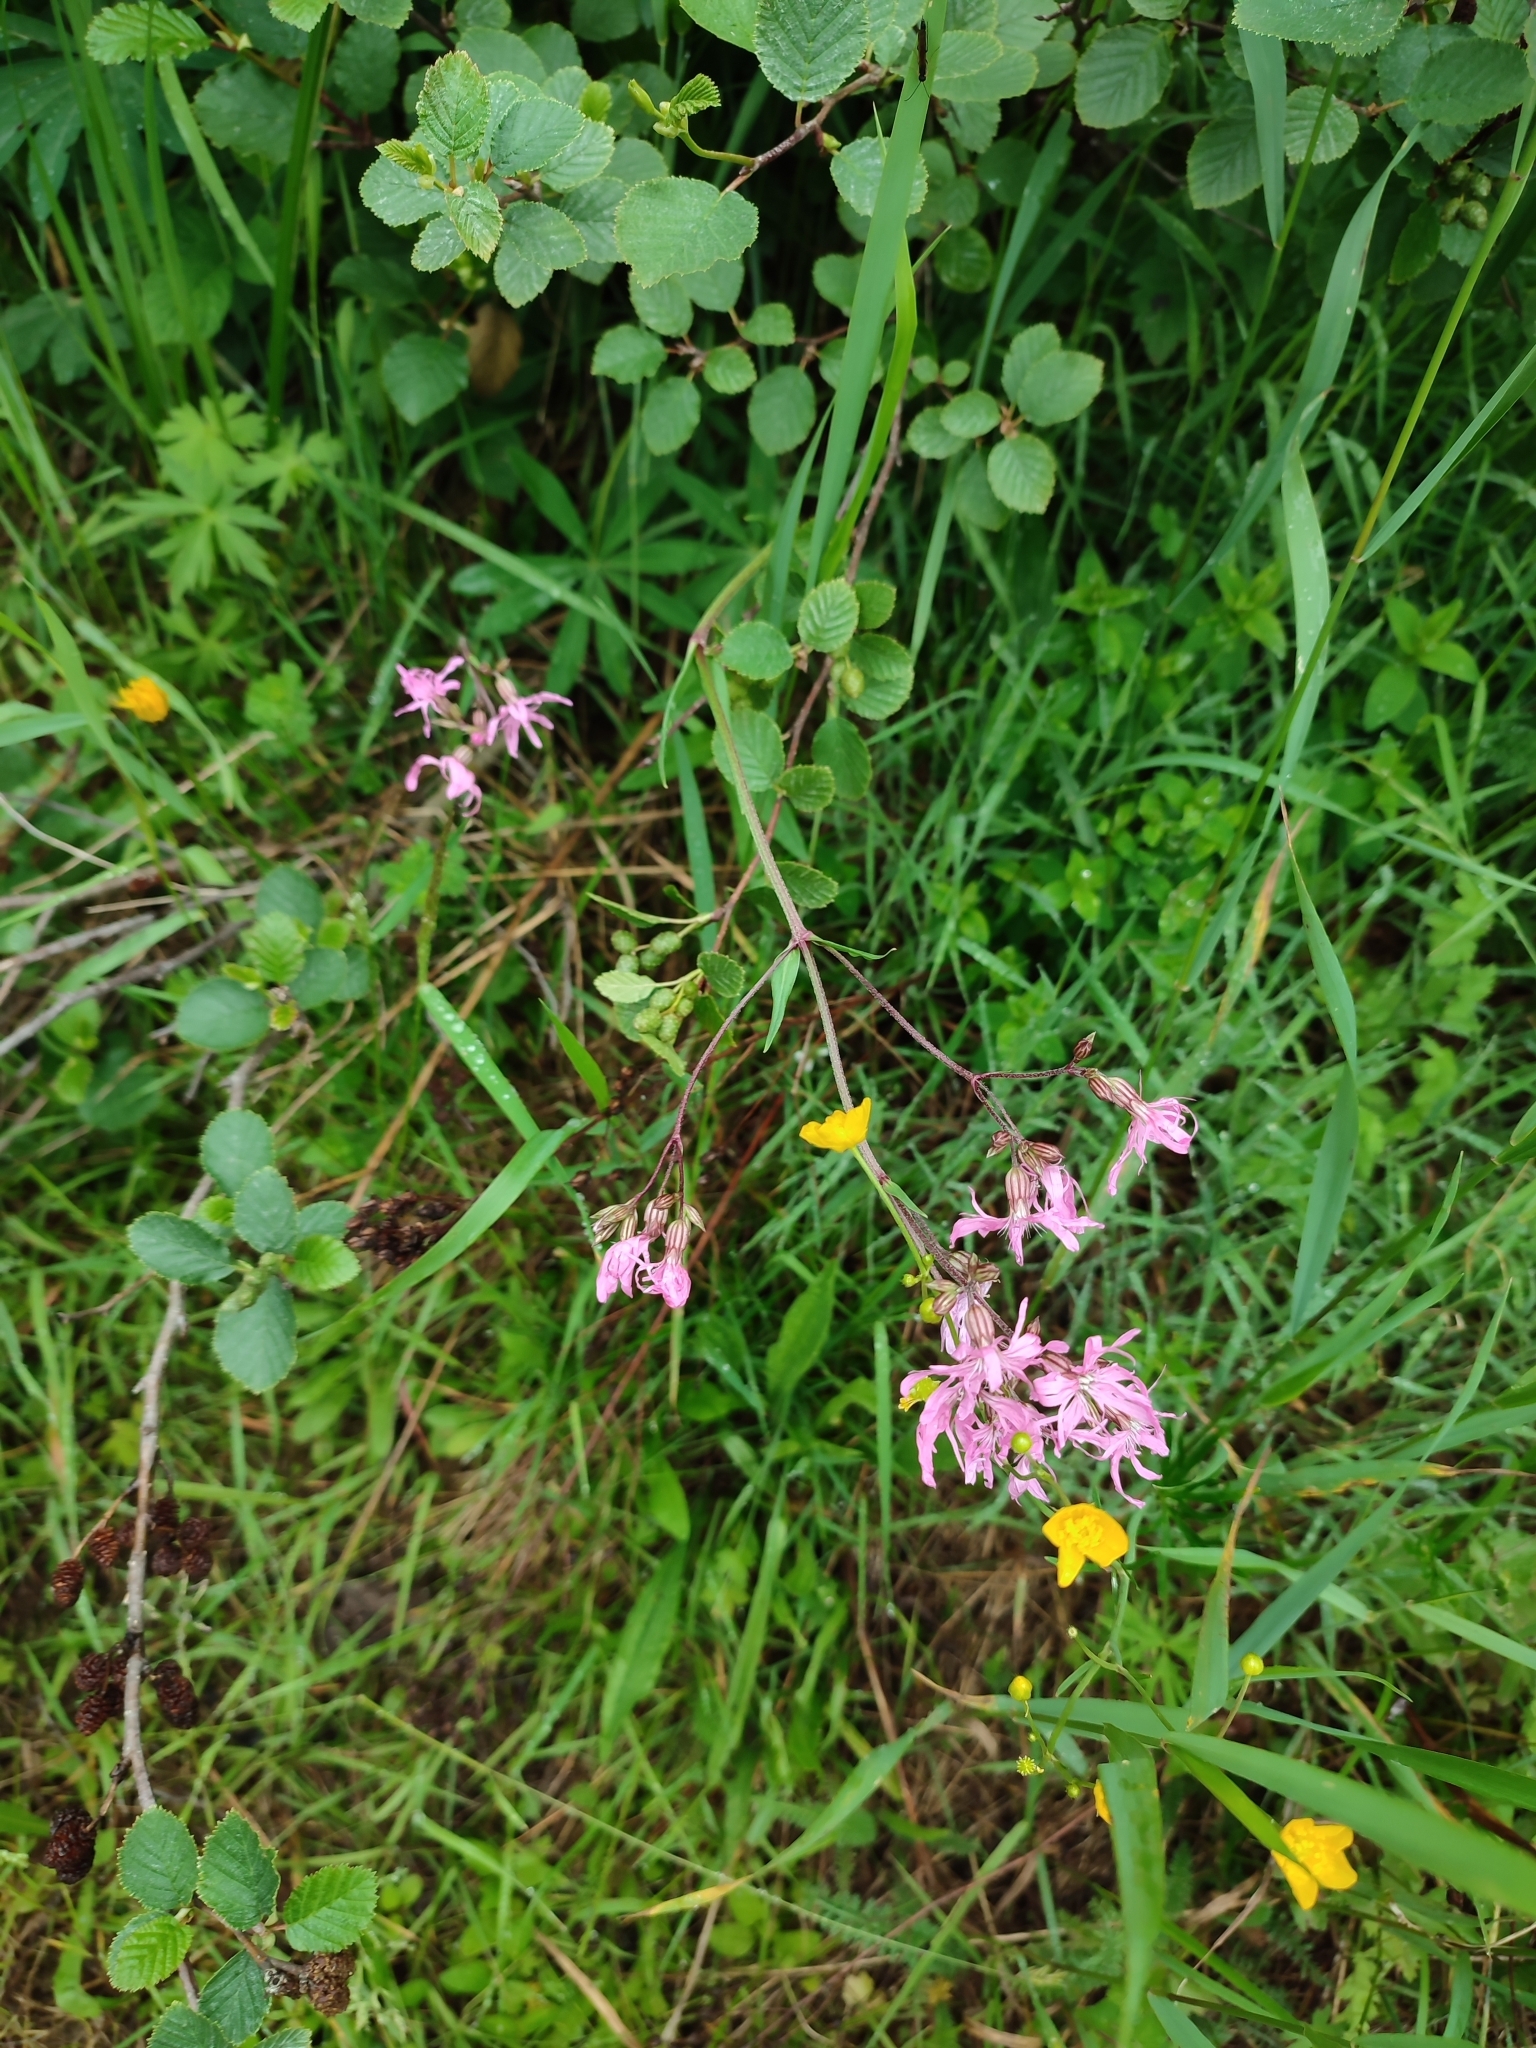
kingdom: Plantae
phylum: Tracheophyta
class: Magnoliopsida
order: Caryophyllales
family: Caryophyllaceae
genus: Silene
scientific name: Silene flos-cuculi
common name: Ragged-robin
